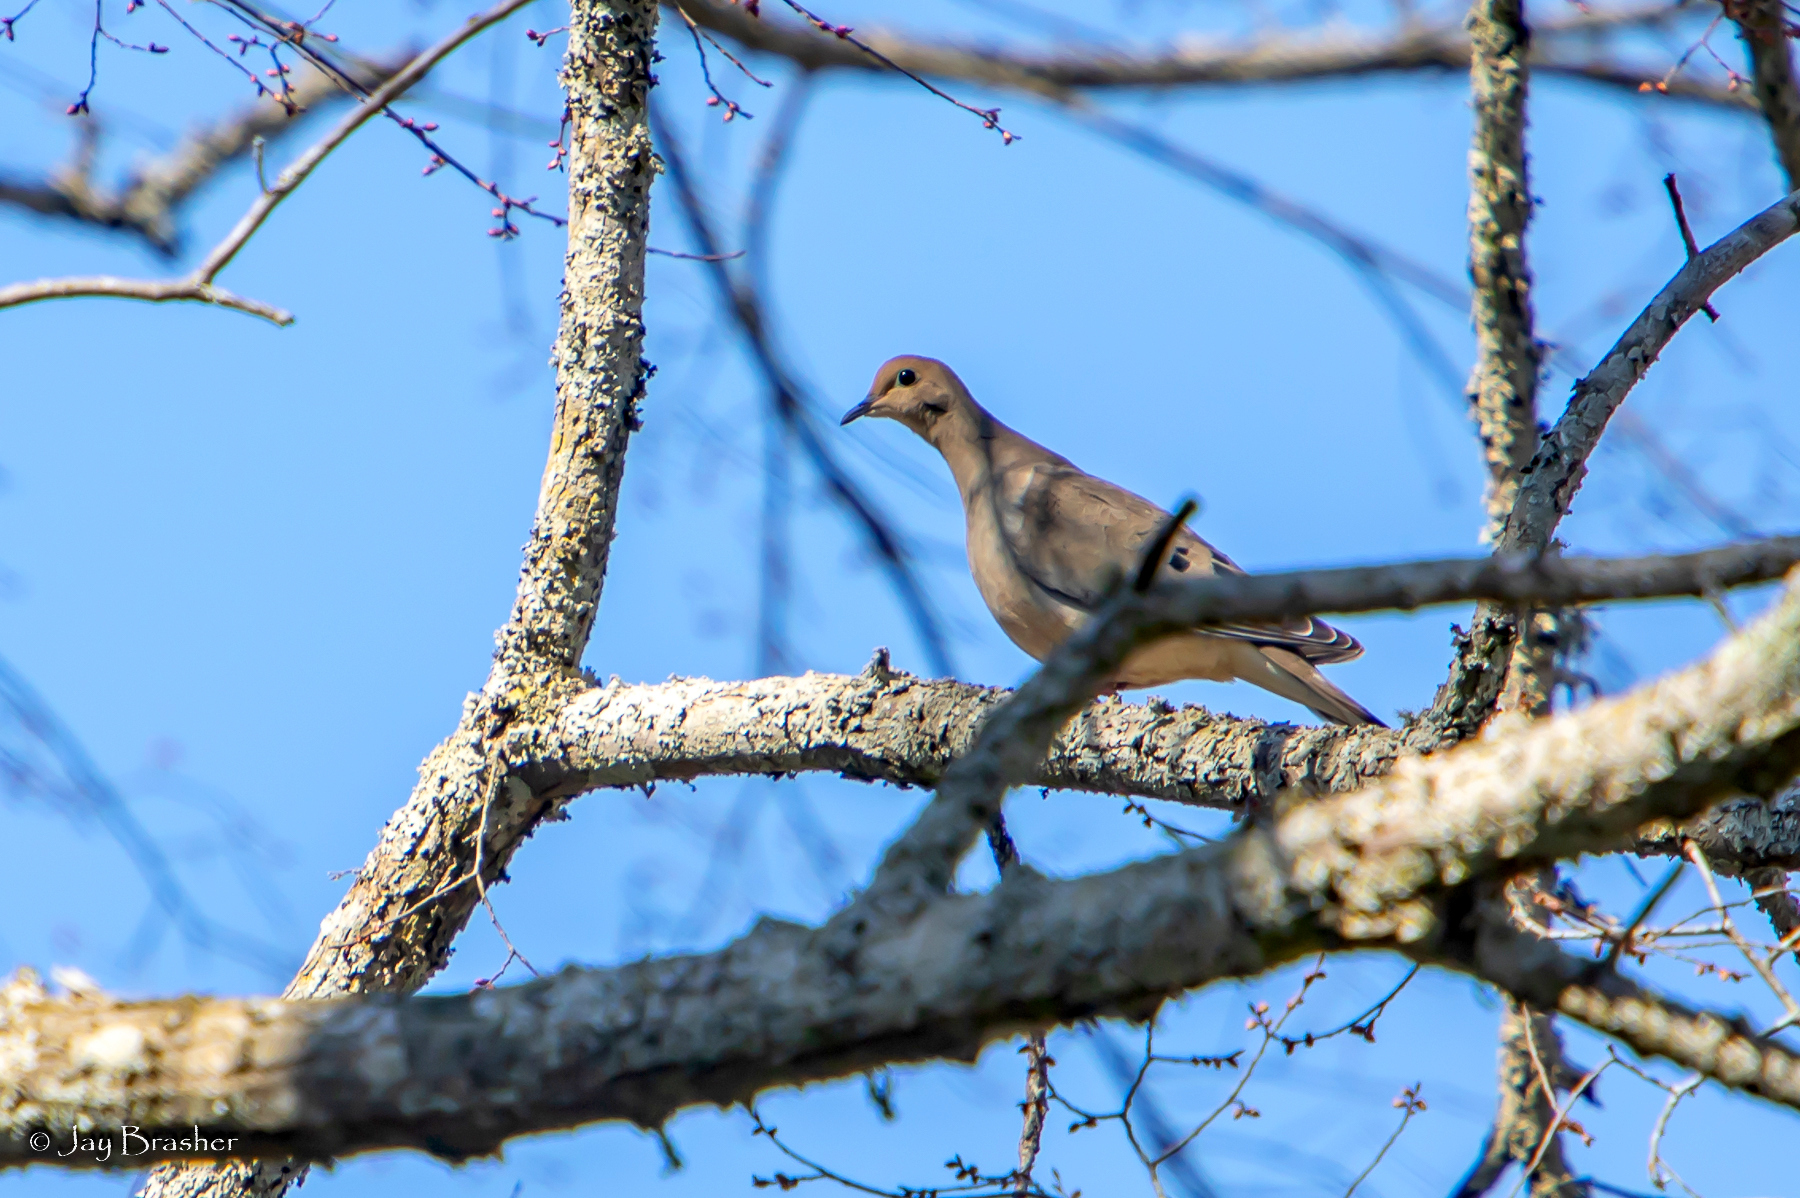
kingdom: Animalia
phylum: Chordata
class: Aves
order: Columbiformes
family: Columbidae
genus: Zenaida
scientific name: Zenaida macroura
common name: Mourning dove
